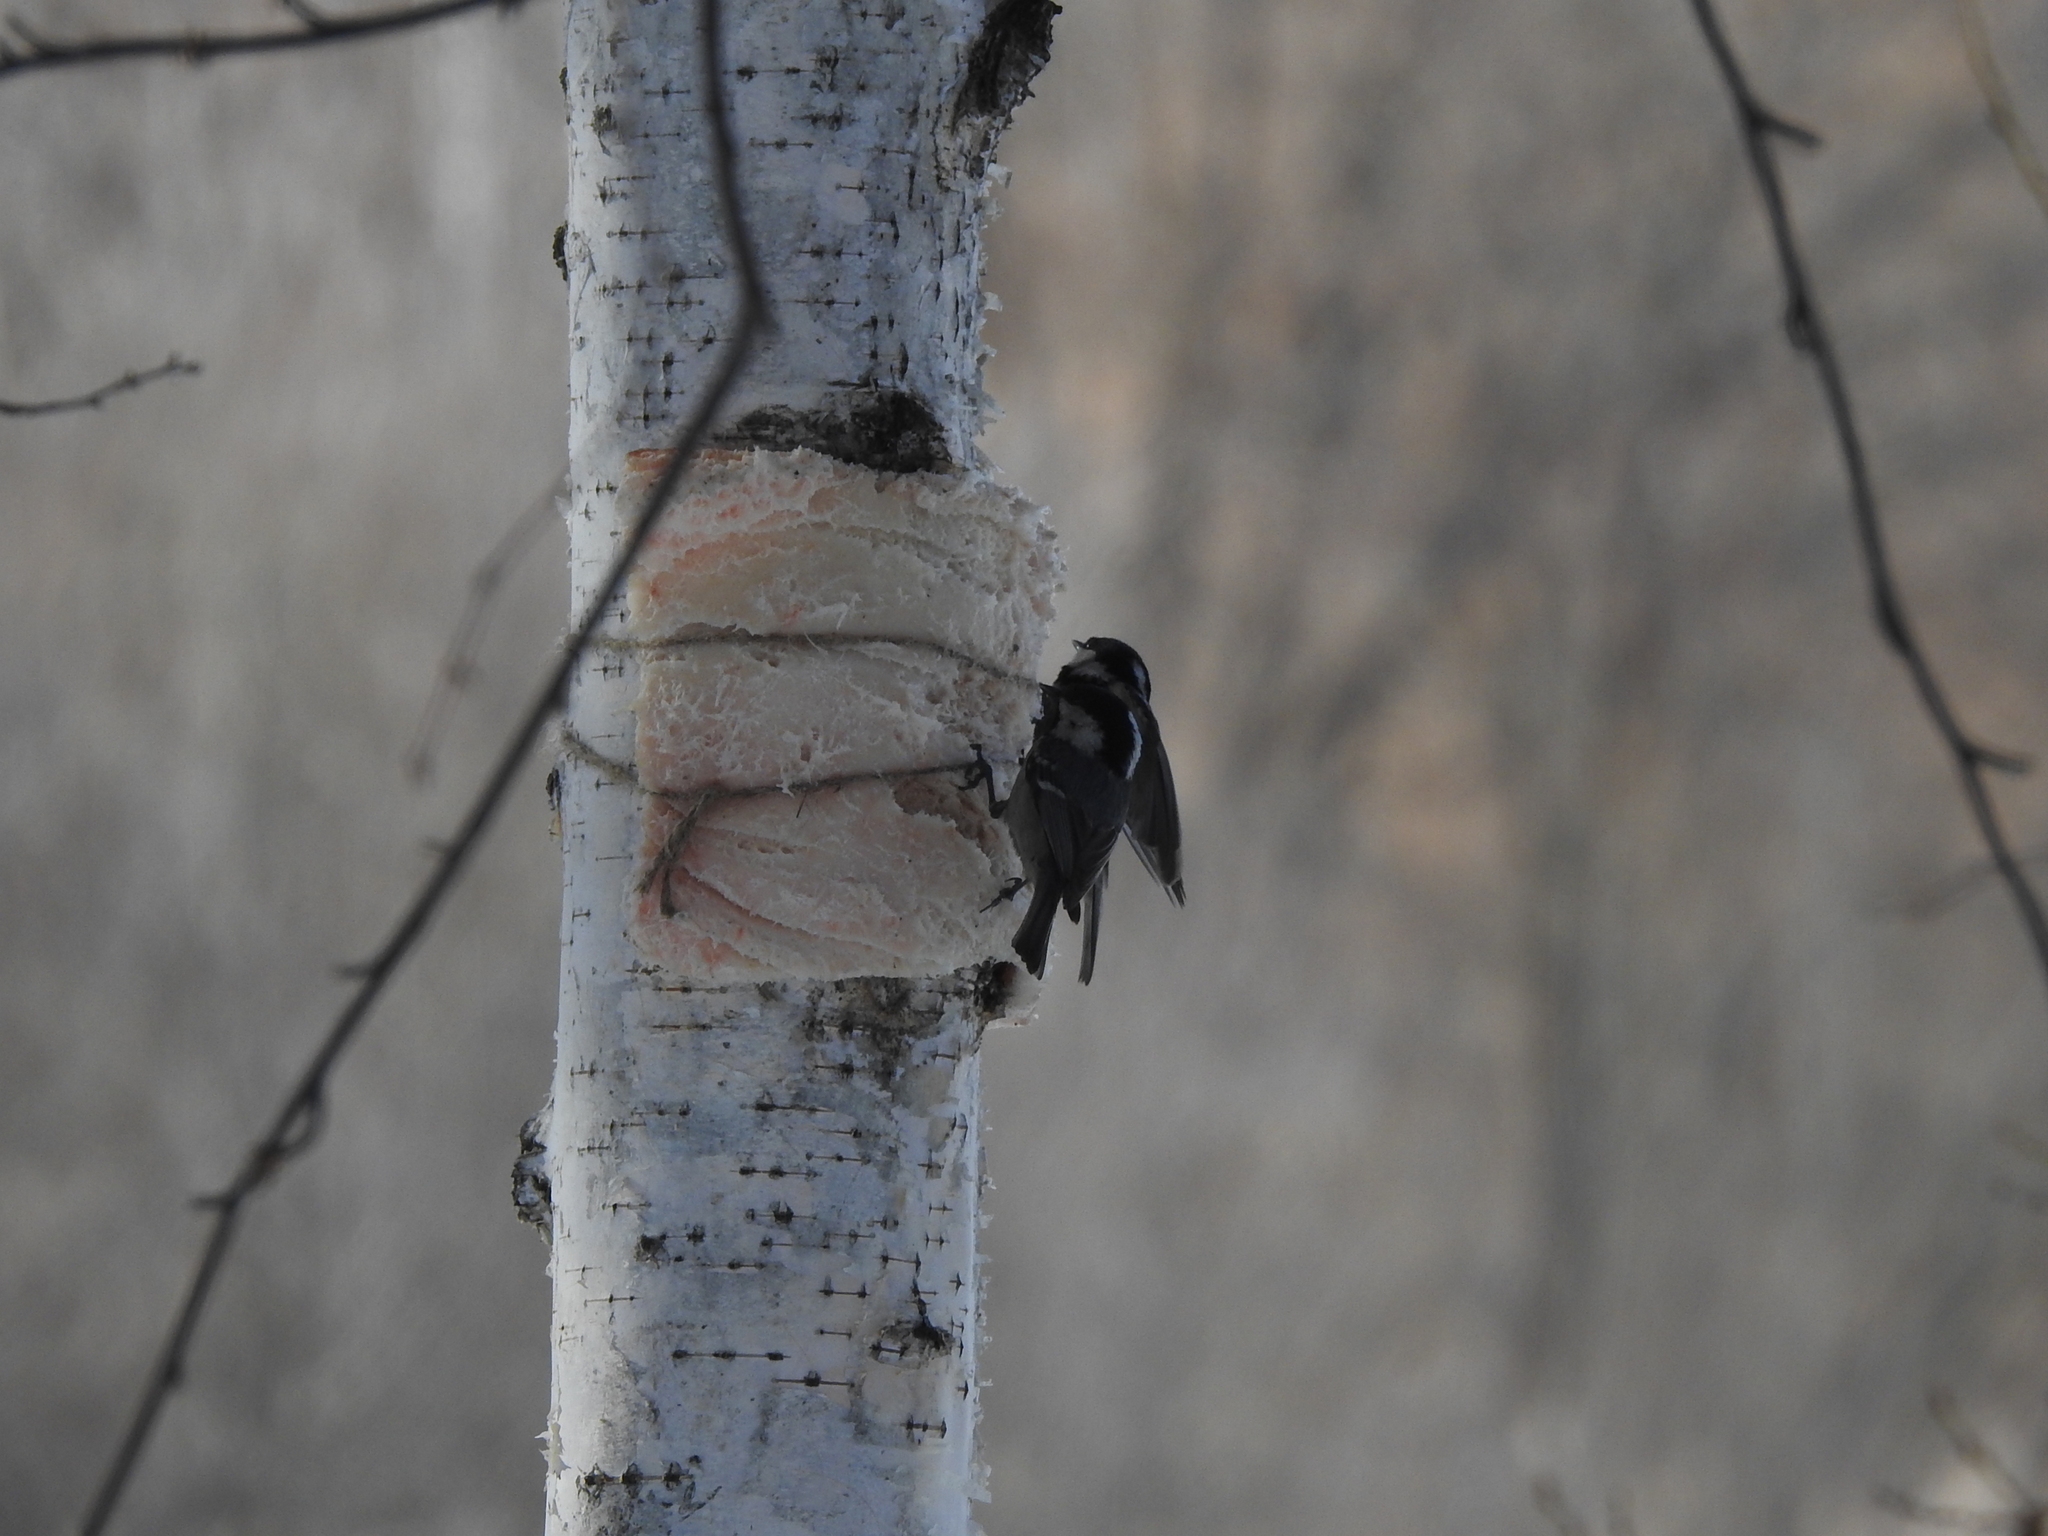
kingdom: Animalia
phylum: Chordata
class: Aves
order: Passeriformes
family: Paridae
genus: Periparus
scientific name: Periparus ater
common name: Coal tit
